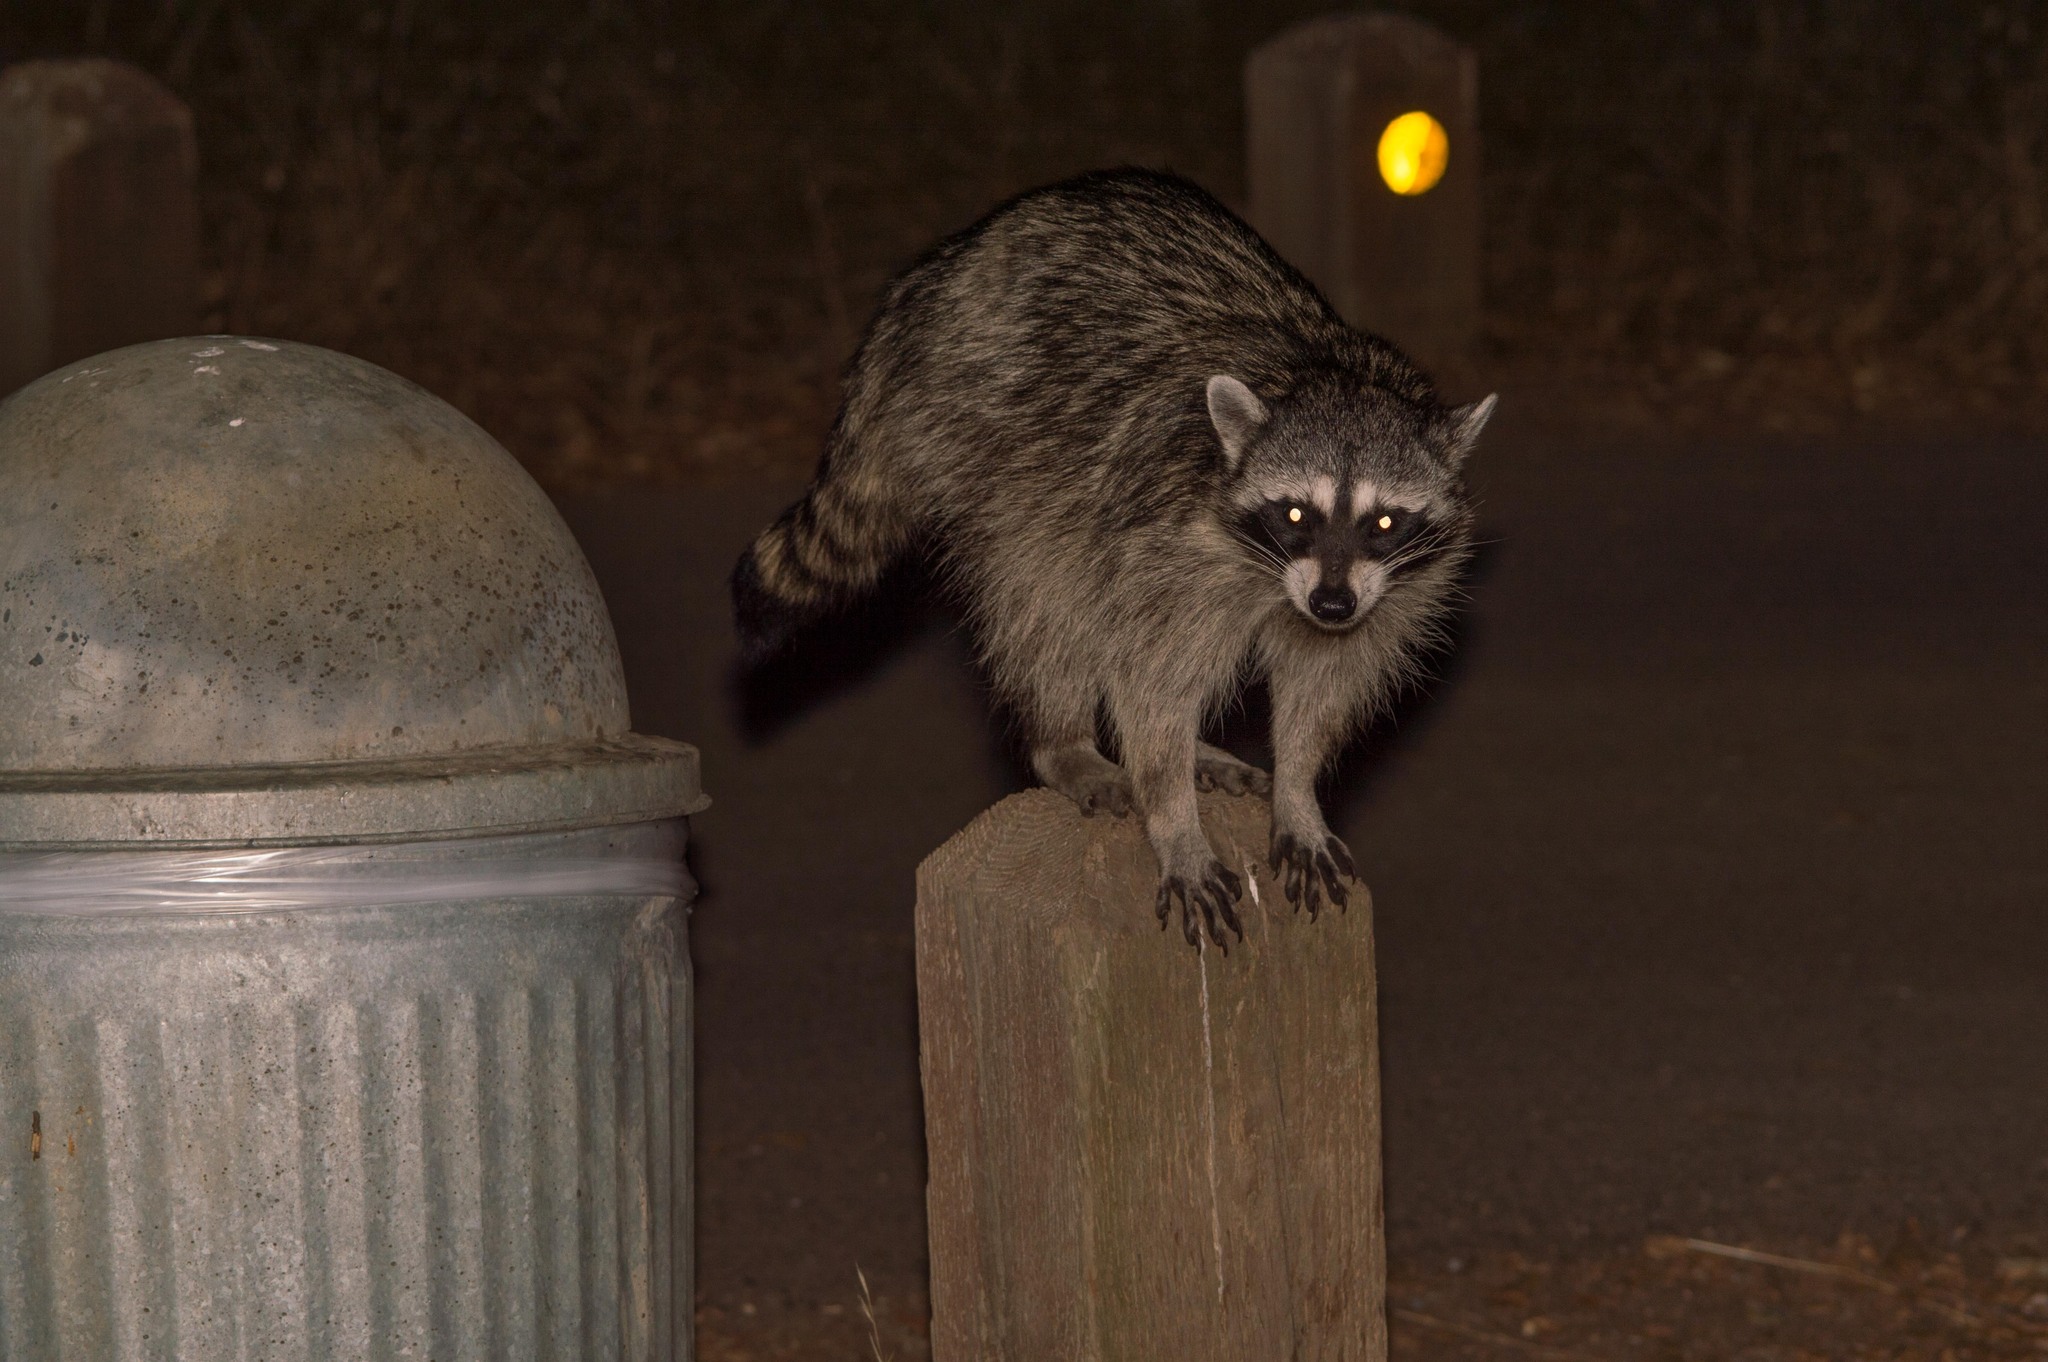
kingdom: Animalia
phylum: Chordata
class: Mammalia
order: Carnivora
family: Procyonidae
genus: Procyon
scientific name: Procyon lotor
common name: Raccoon
